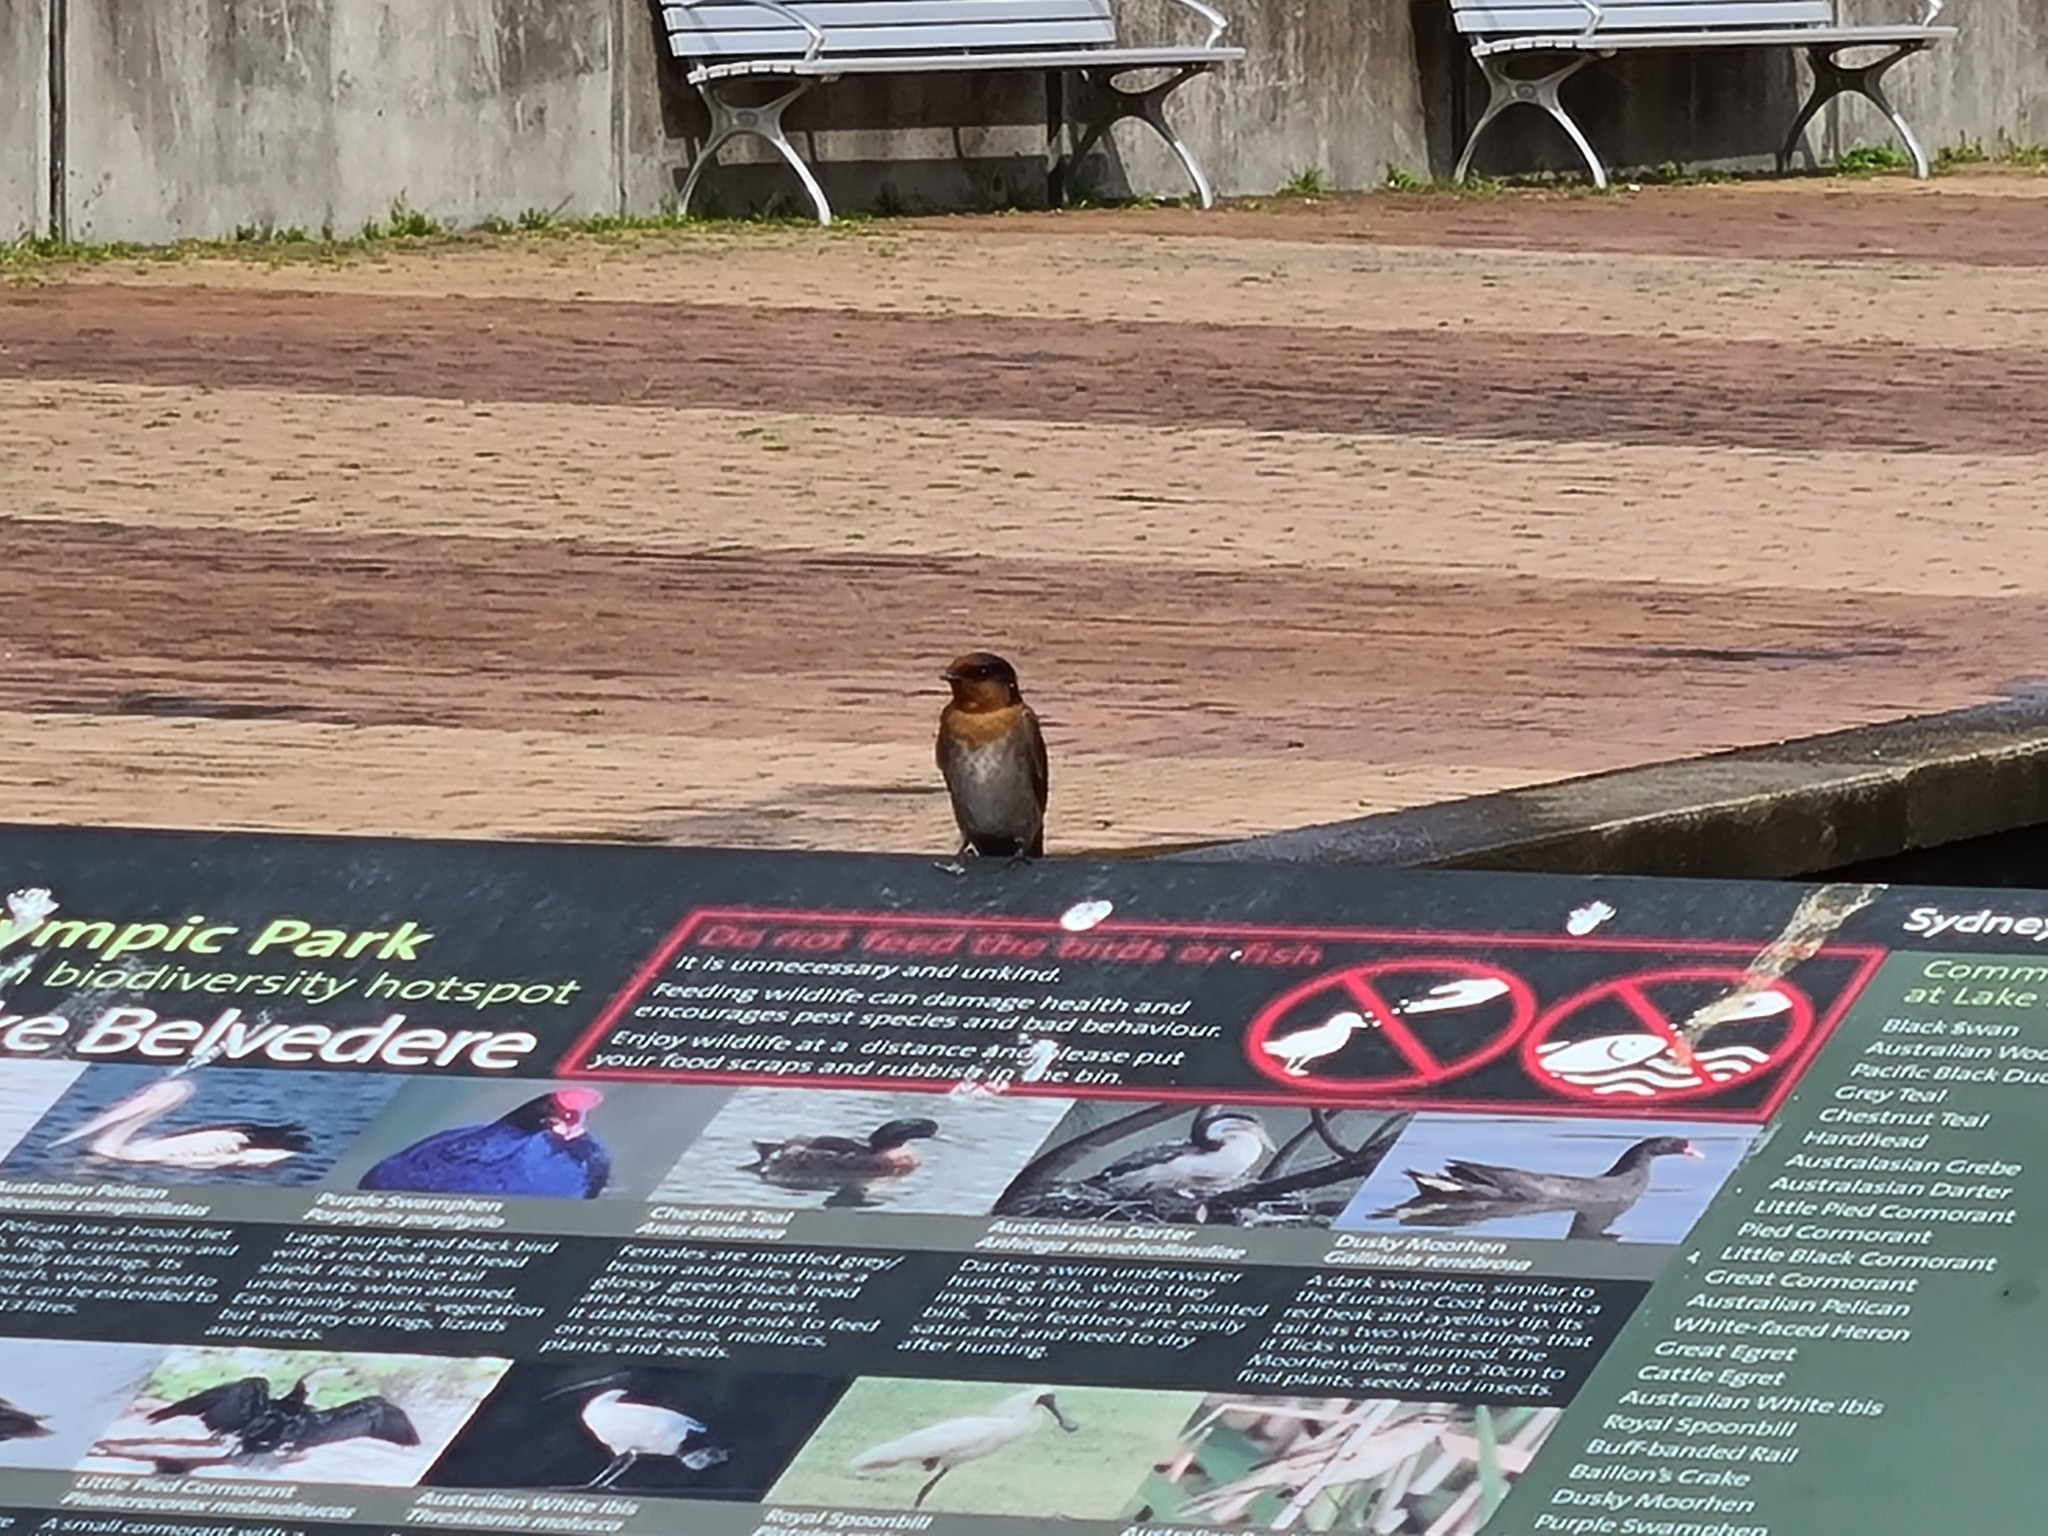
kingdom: Animalia
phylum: Chordata
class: Aves
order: Passeriformes
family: Hirundinidae
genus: Hirundo
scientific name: Hirundo neoxena
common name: Welcome swallow
